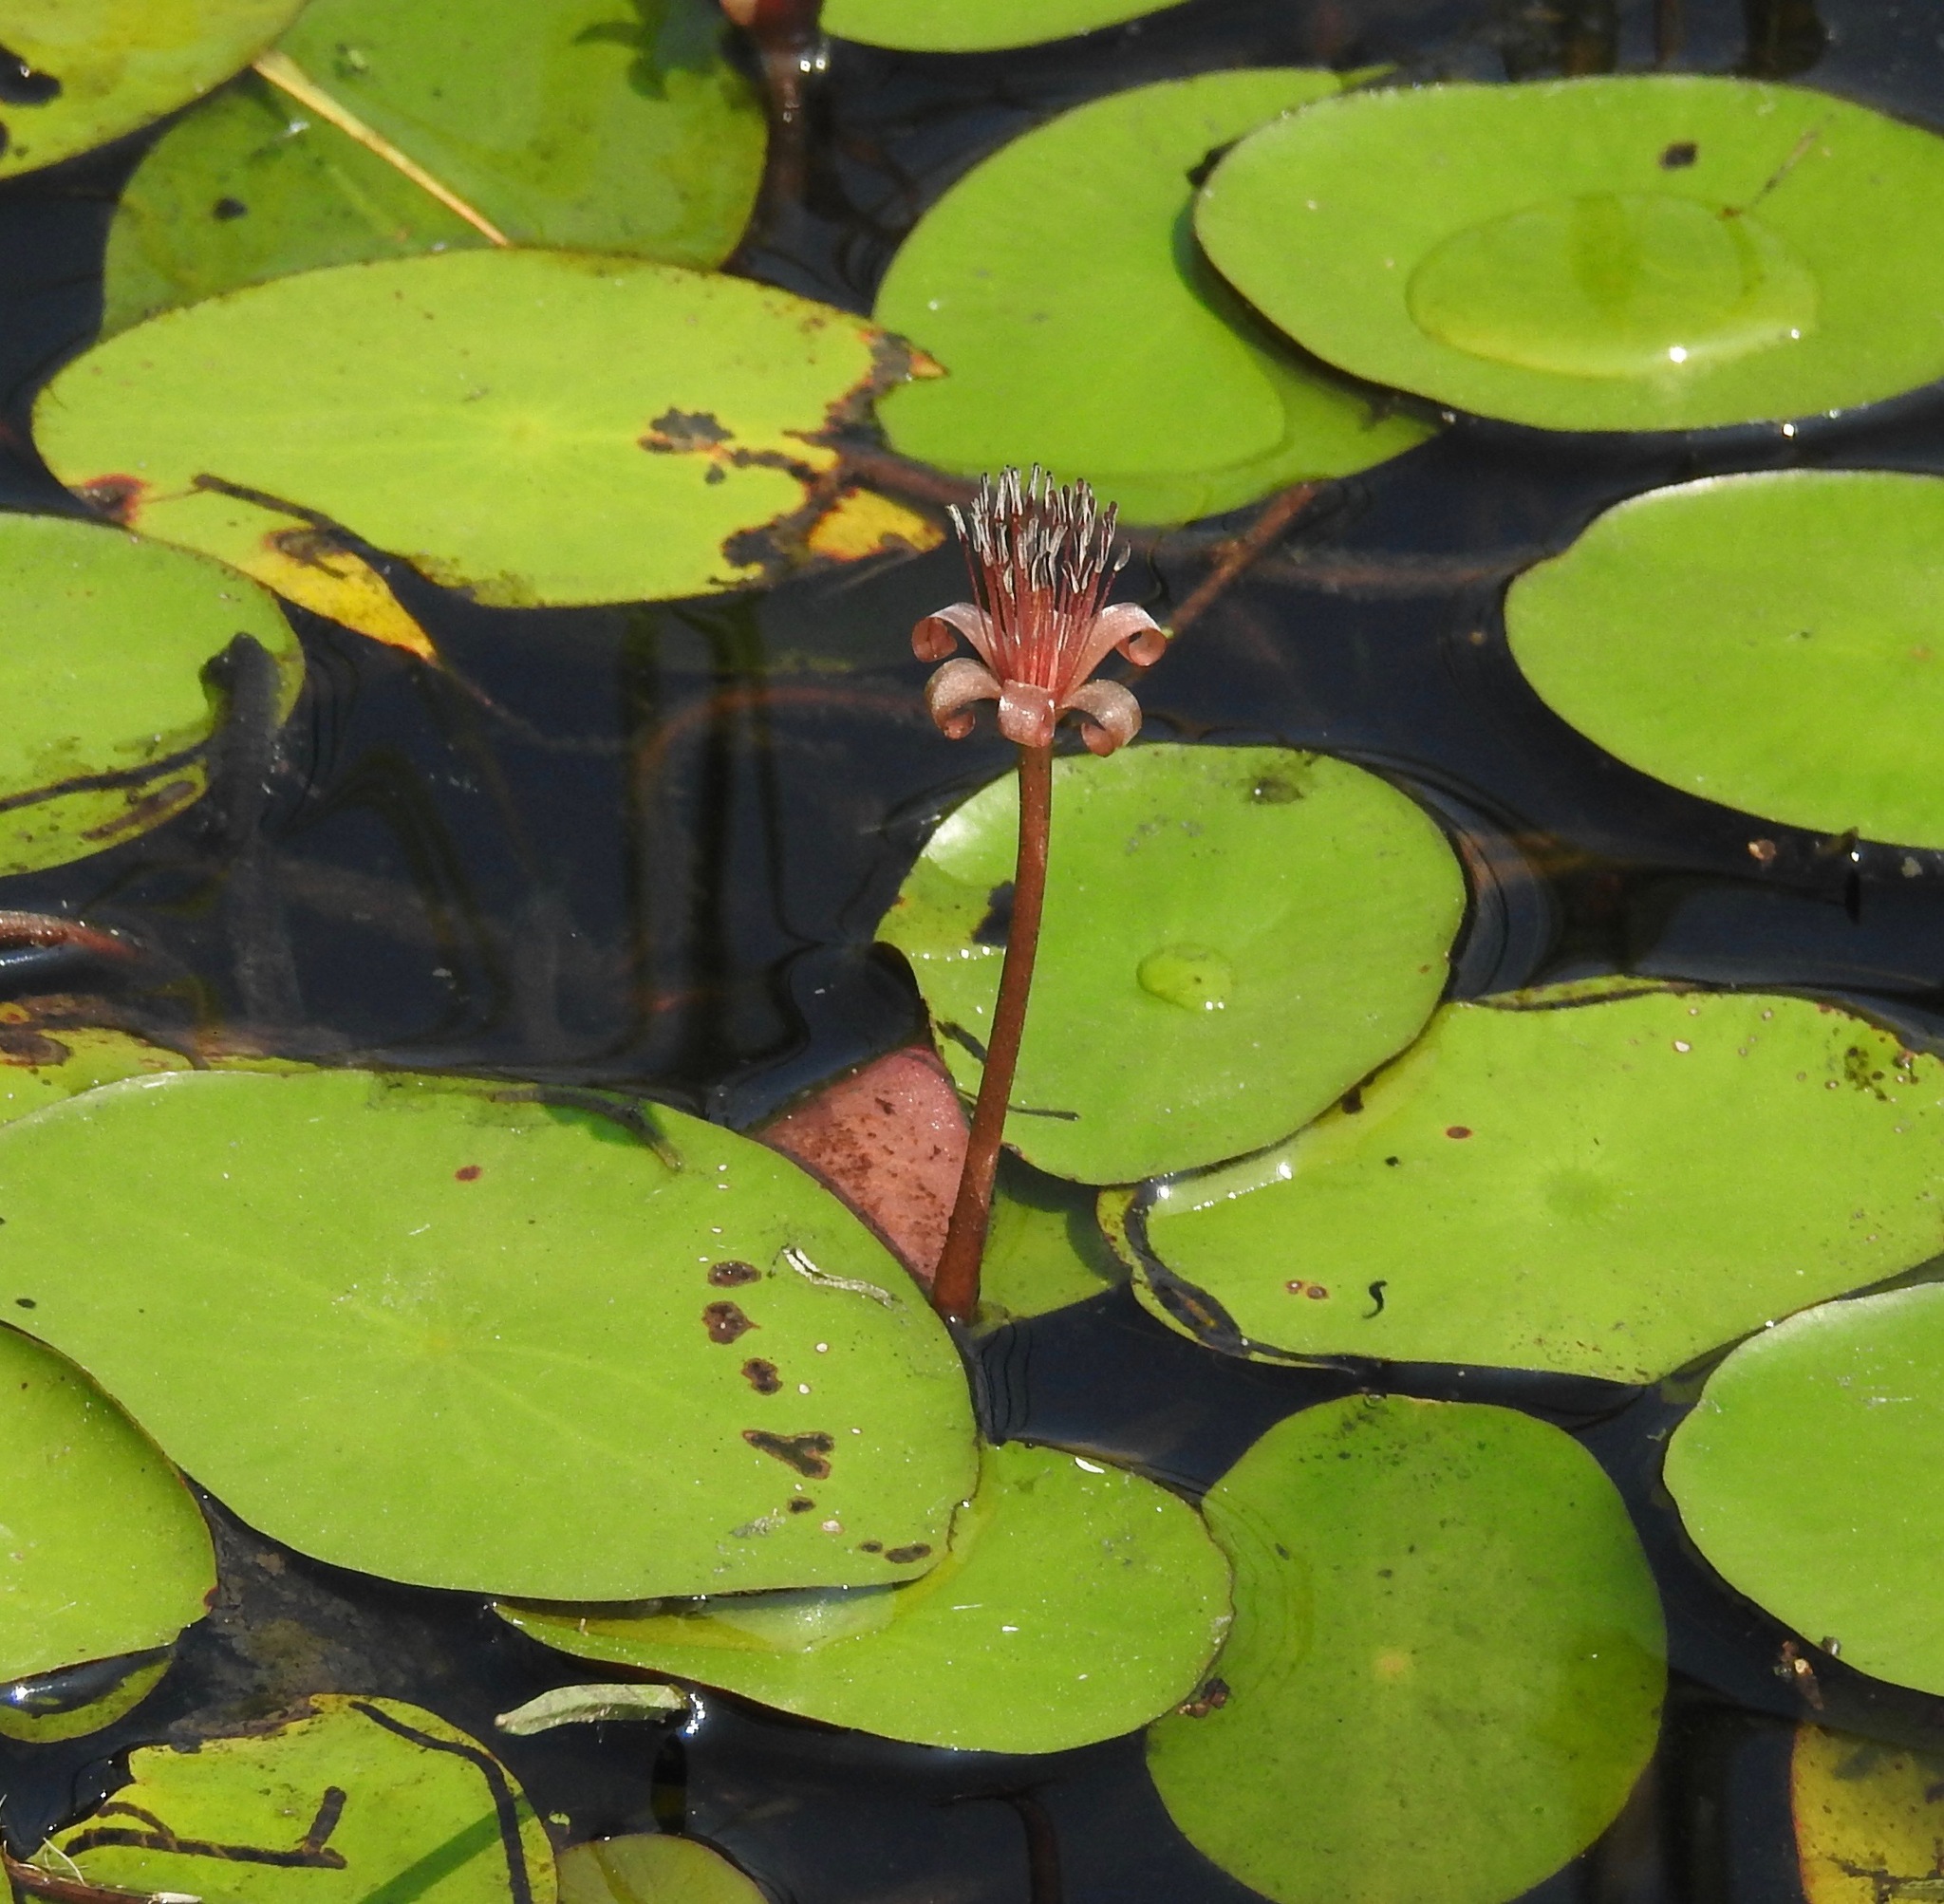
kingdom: Plantae
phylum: Tracheophyta
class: Magnoliopsida
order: Nymphaeales
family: Cabombaceae
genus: Brasenia
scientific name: Brasenia schreberi
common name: Water-shield
